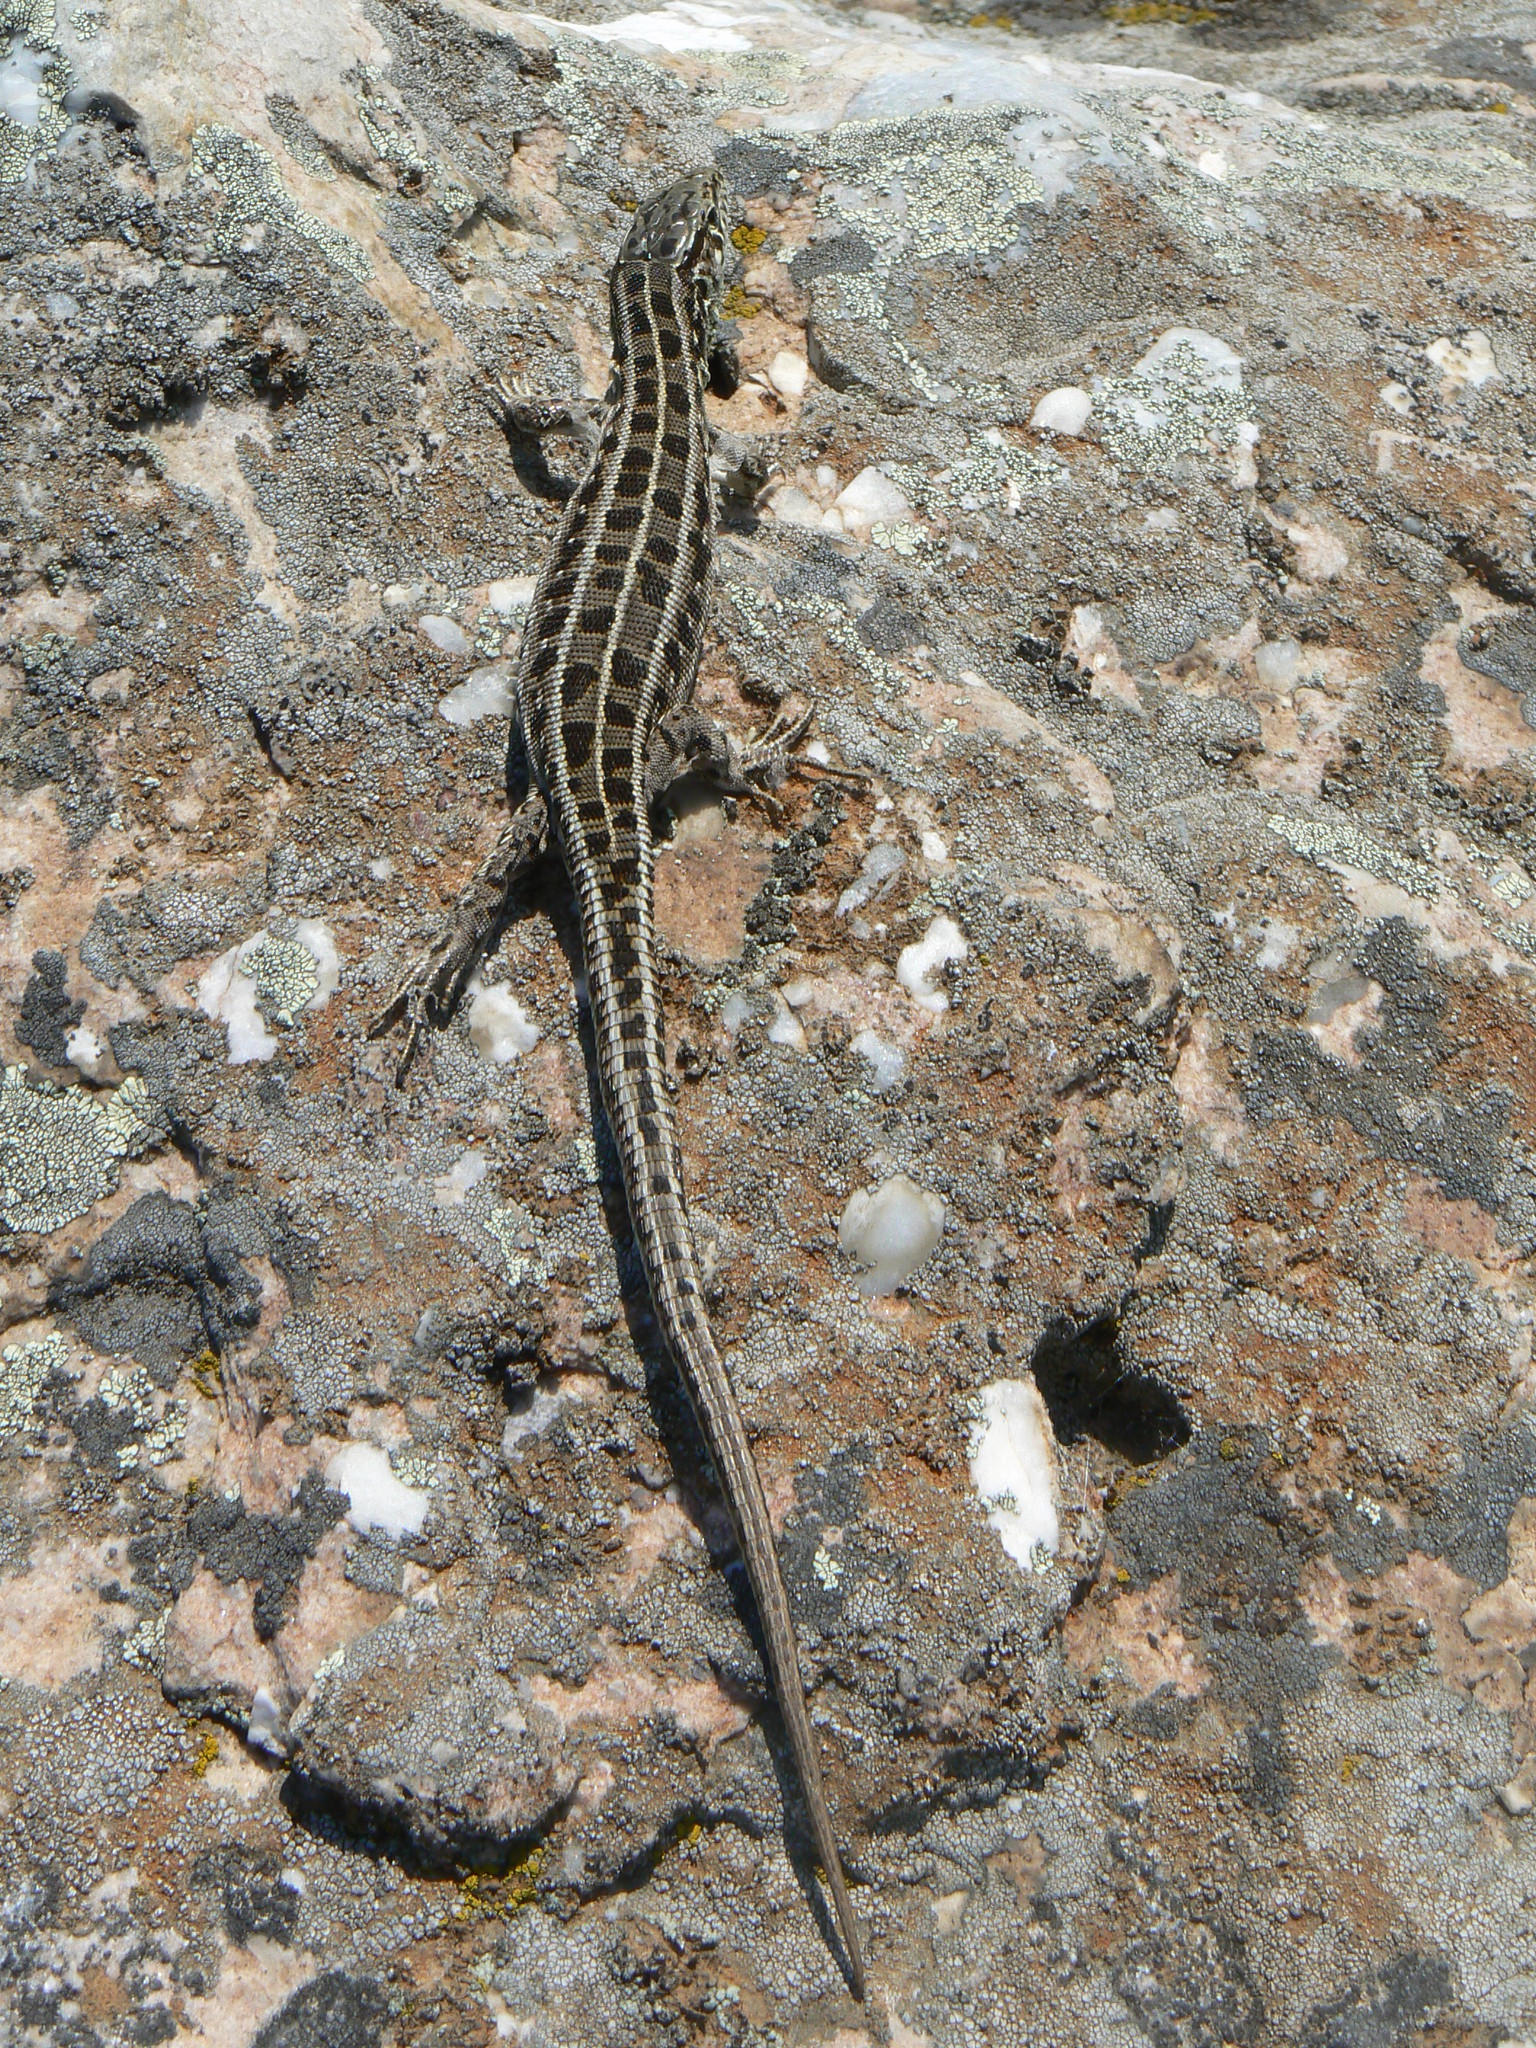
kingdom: Animalia
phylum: Chordata
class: Squamata
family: Lacertidae
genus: Lacerta
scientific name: Lacerta agilis
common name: Sand lizard
